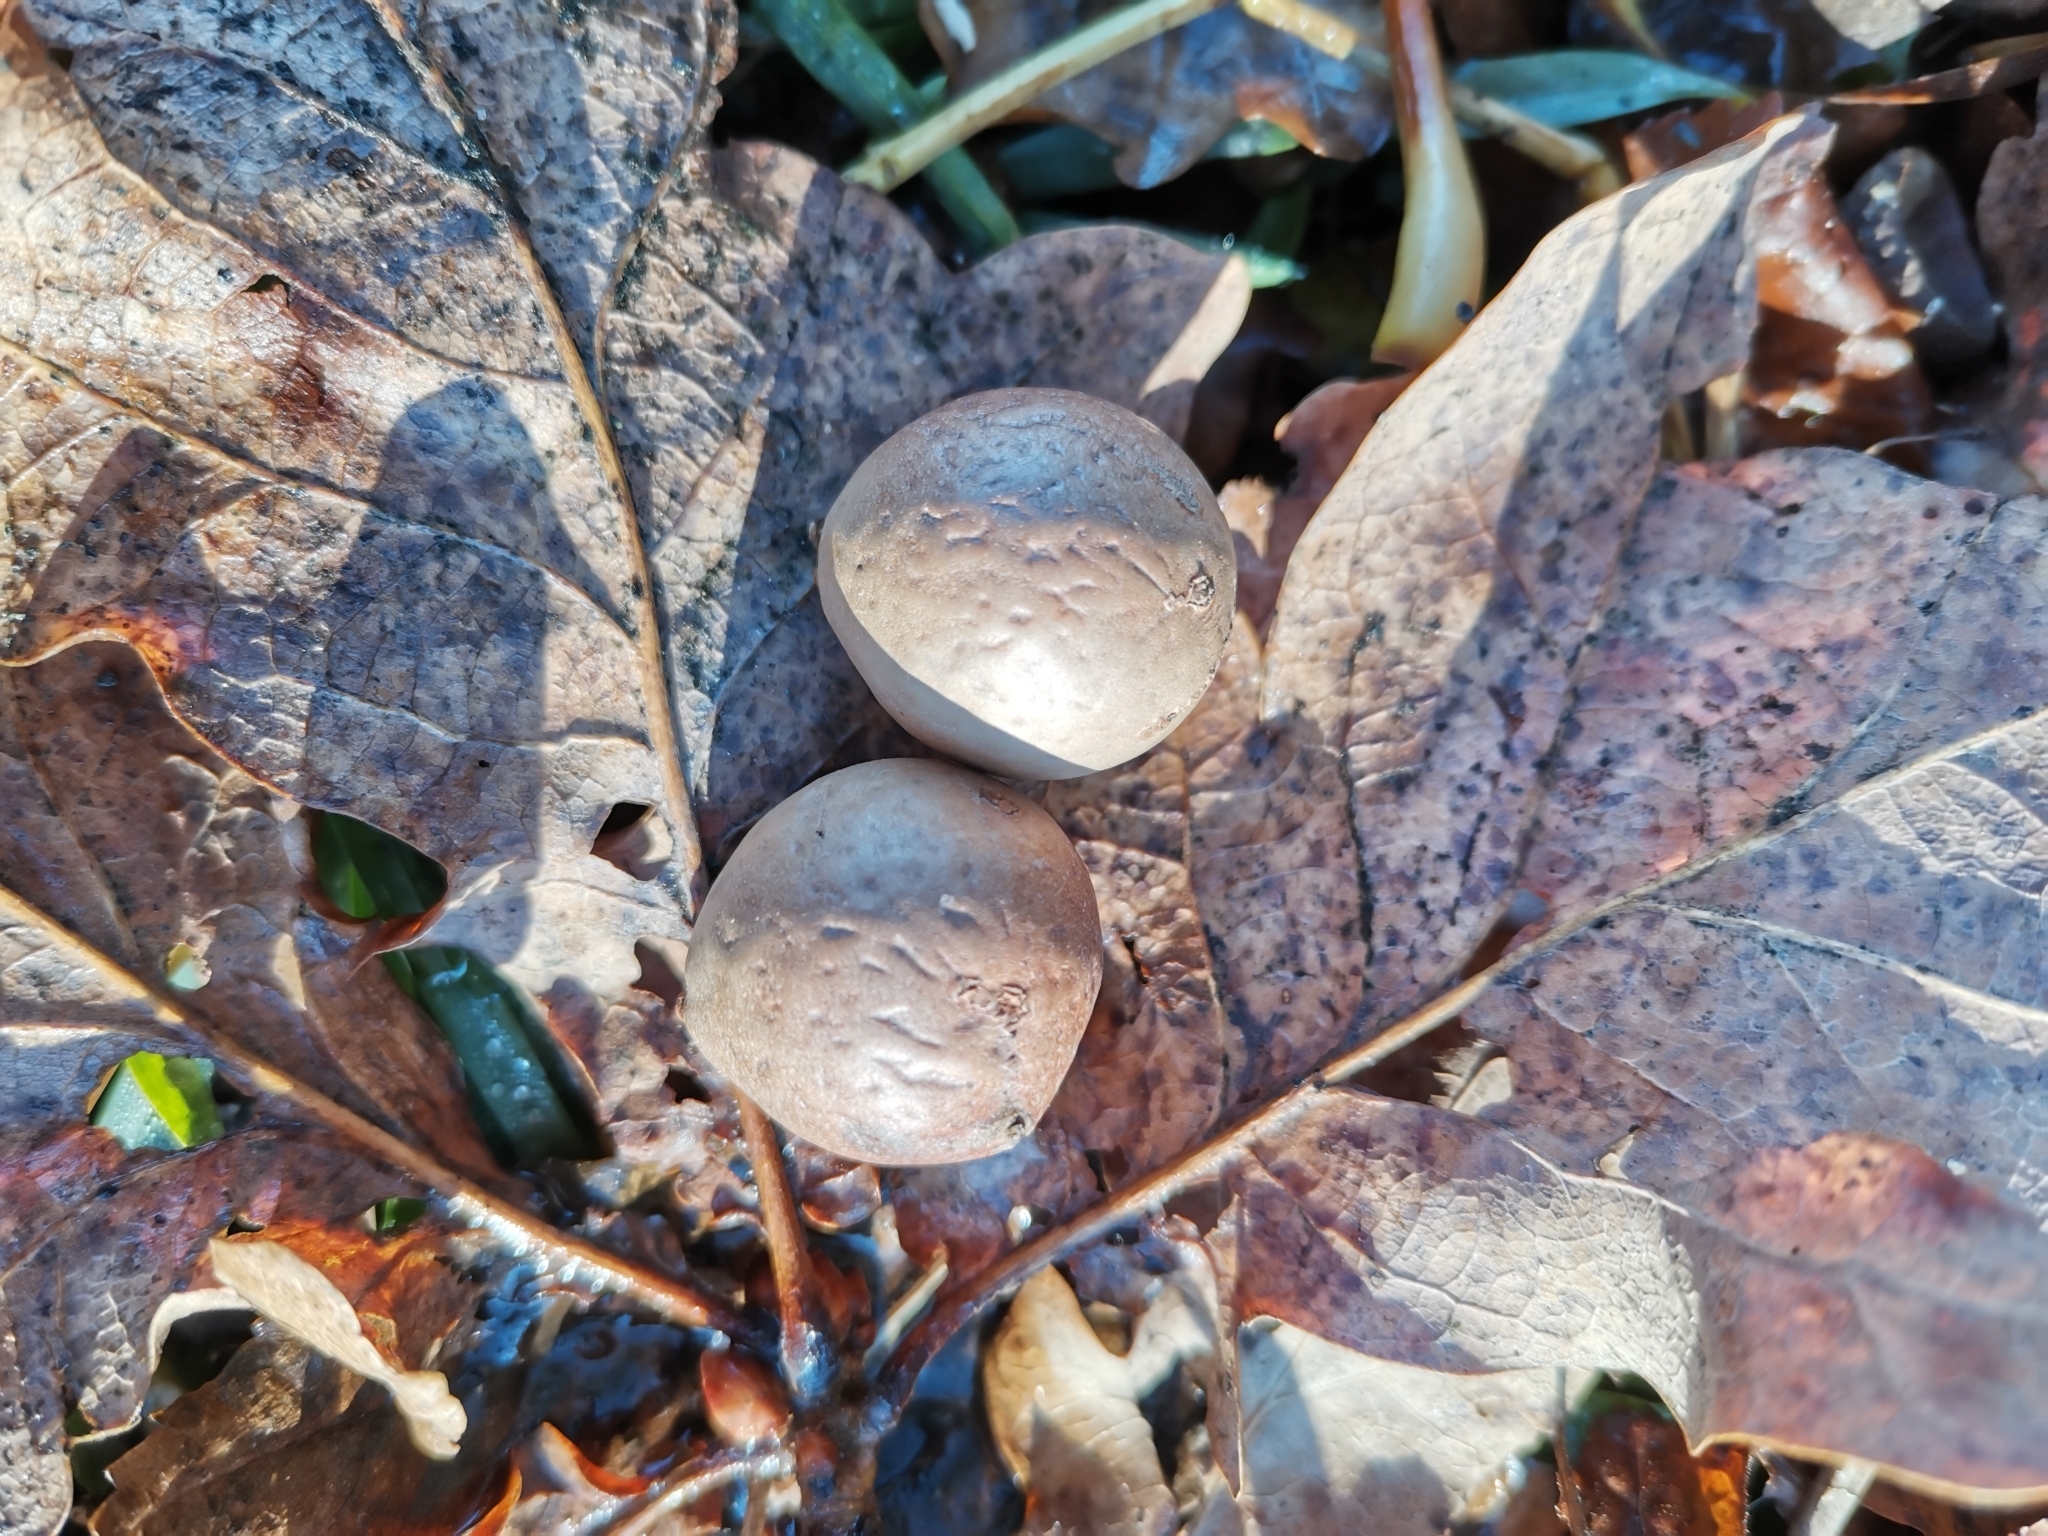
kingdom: Animalia
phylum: Arthropoda
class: Insecta
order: Hymenoptera
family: Cynipidae
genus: Andricus
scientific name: Andricus kollari
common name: Marble gall
